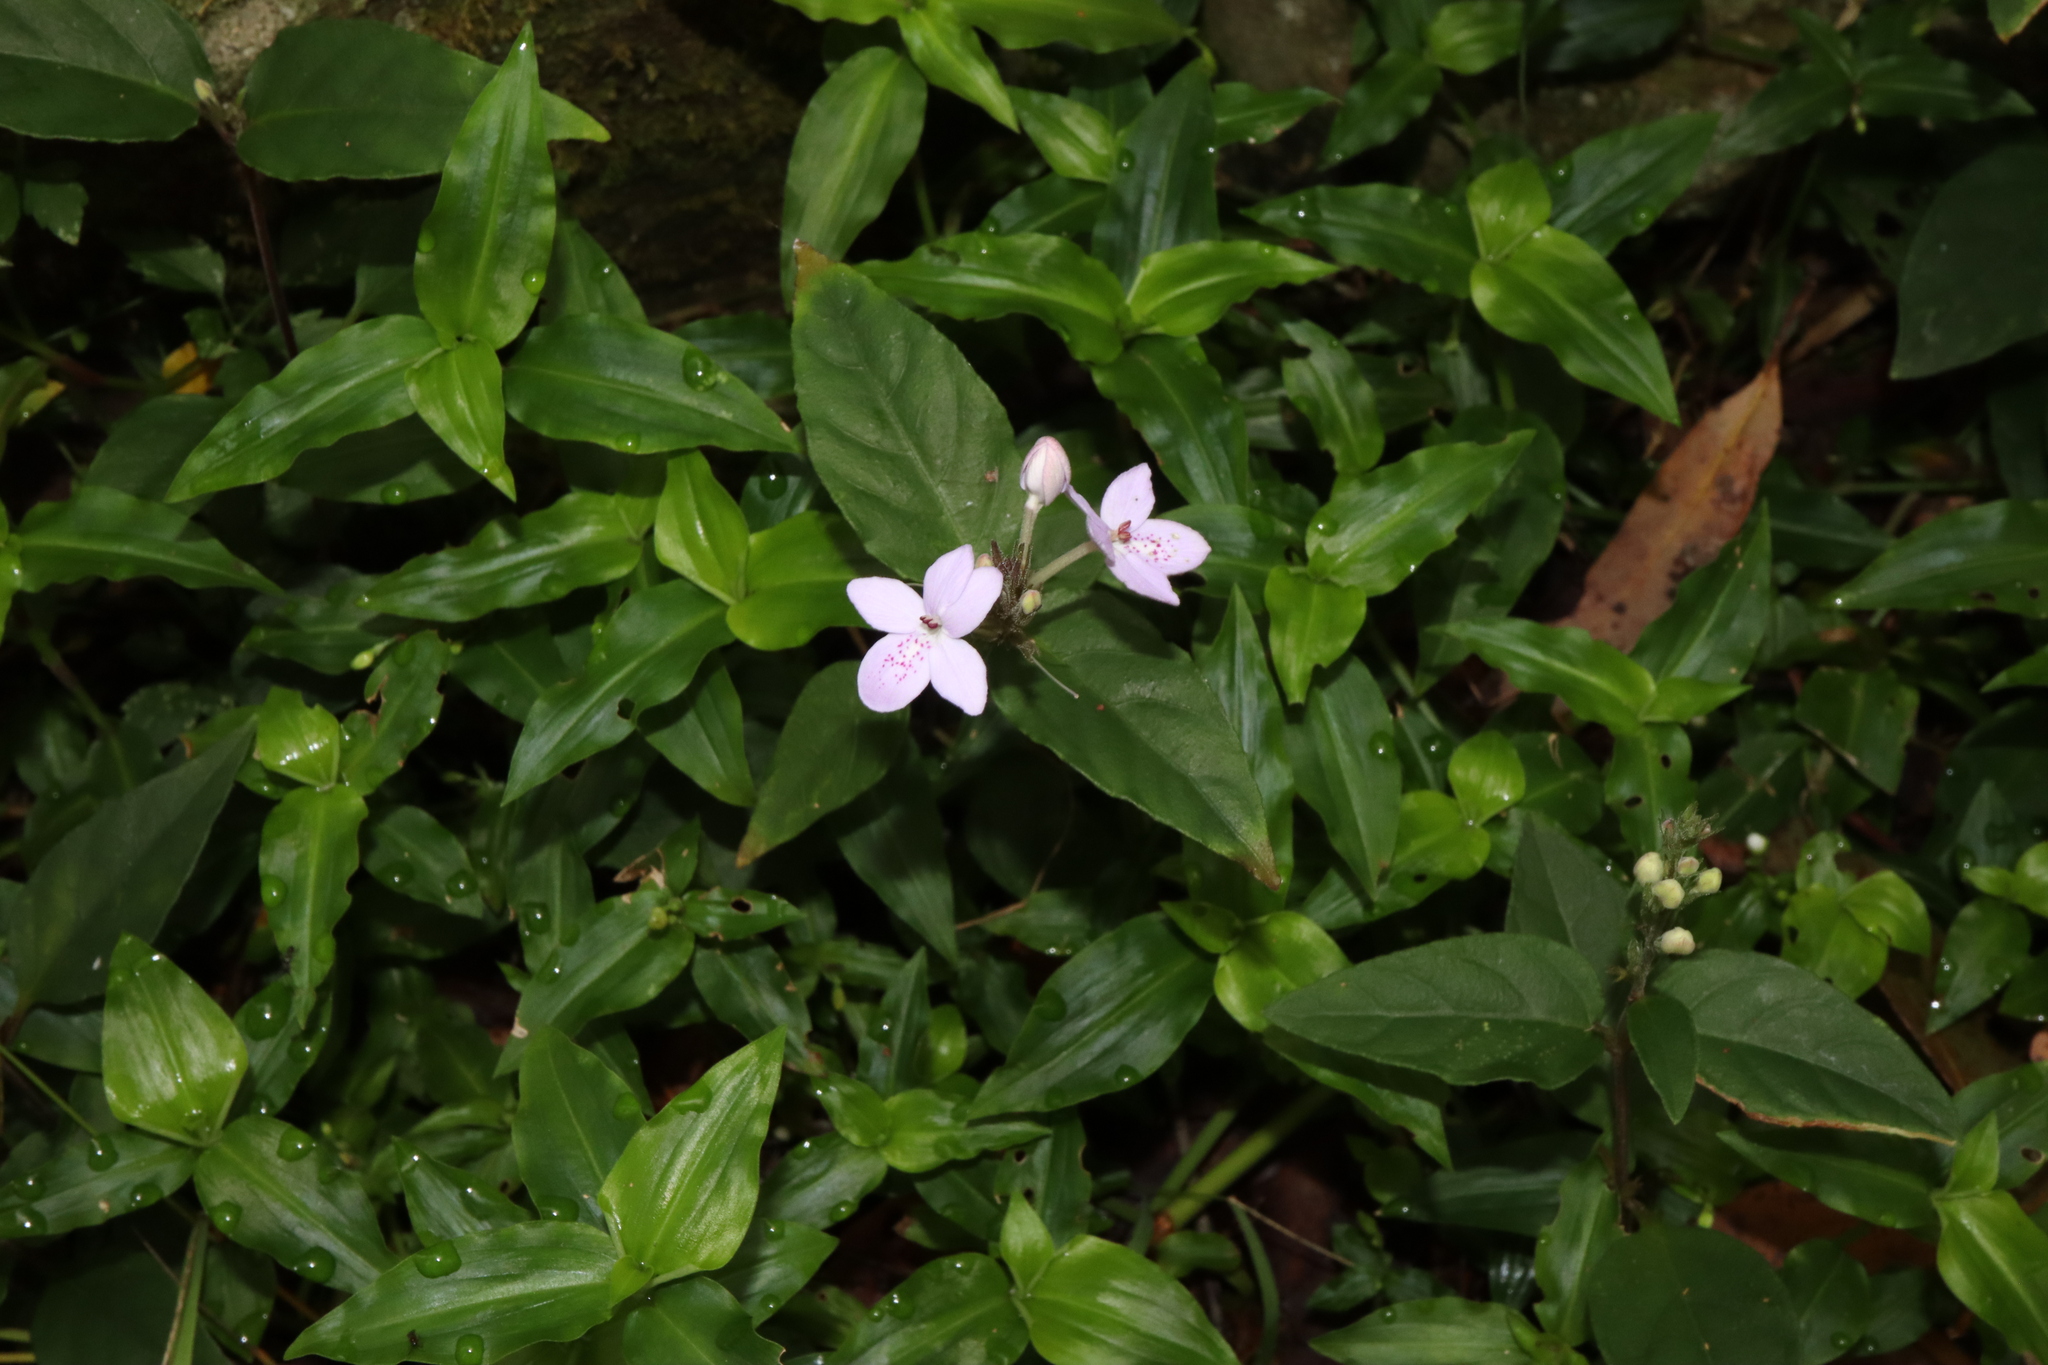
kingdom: Plantae
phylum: Tracheophyta
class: Magnoliopsida
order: Lamiales
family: Acanthaceae
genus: Pseuderanthemum
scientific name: Pseuderanthemum variabile
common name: Night and afternoon
